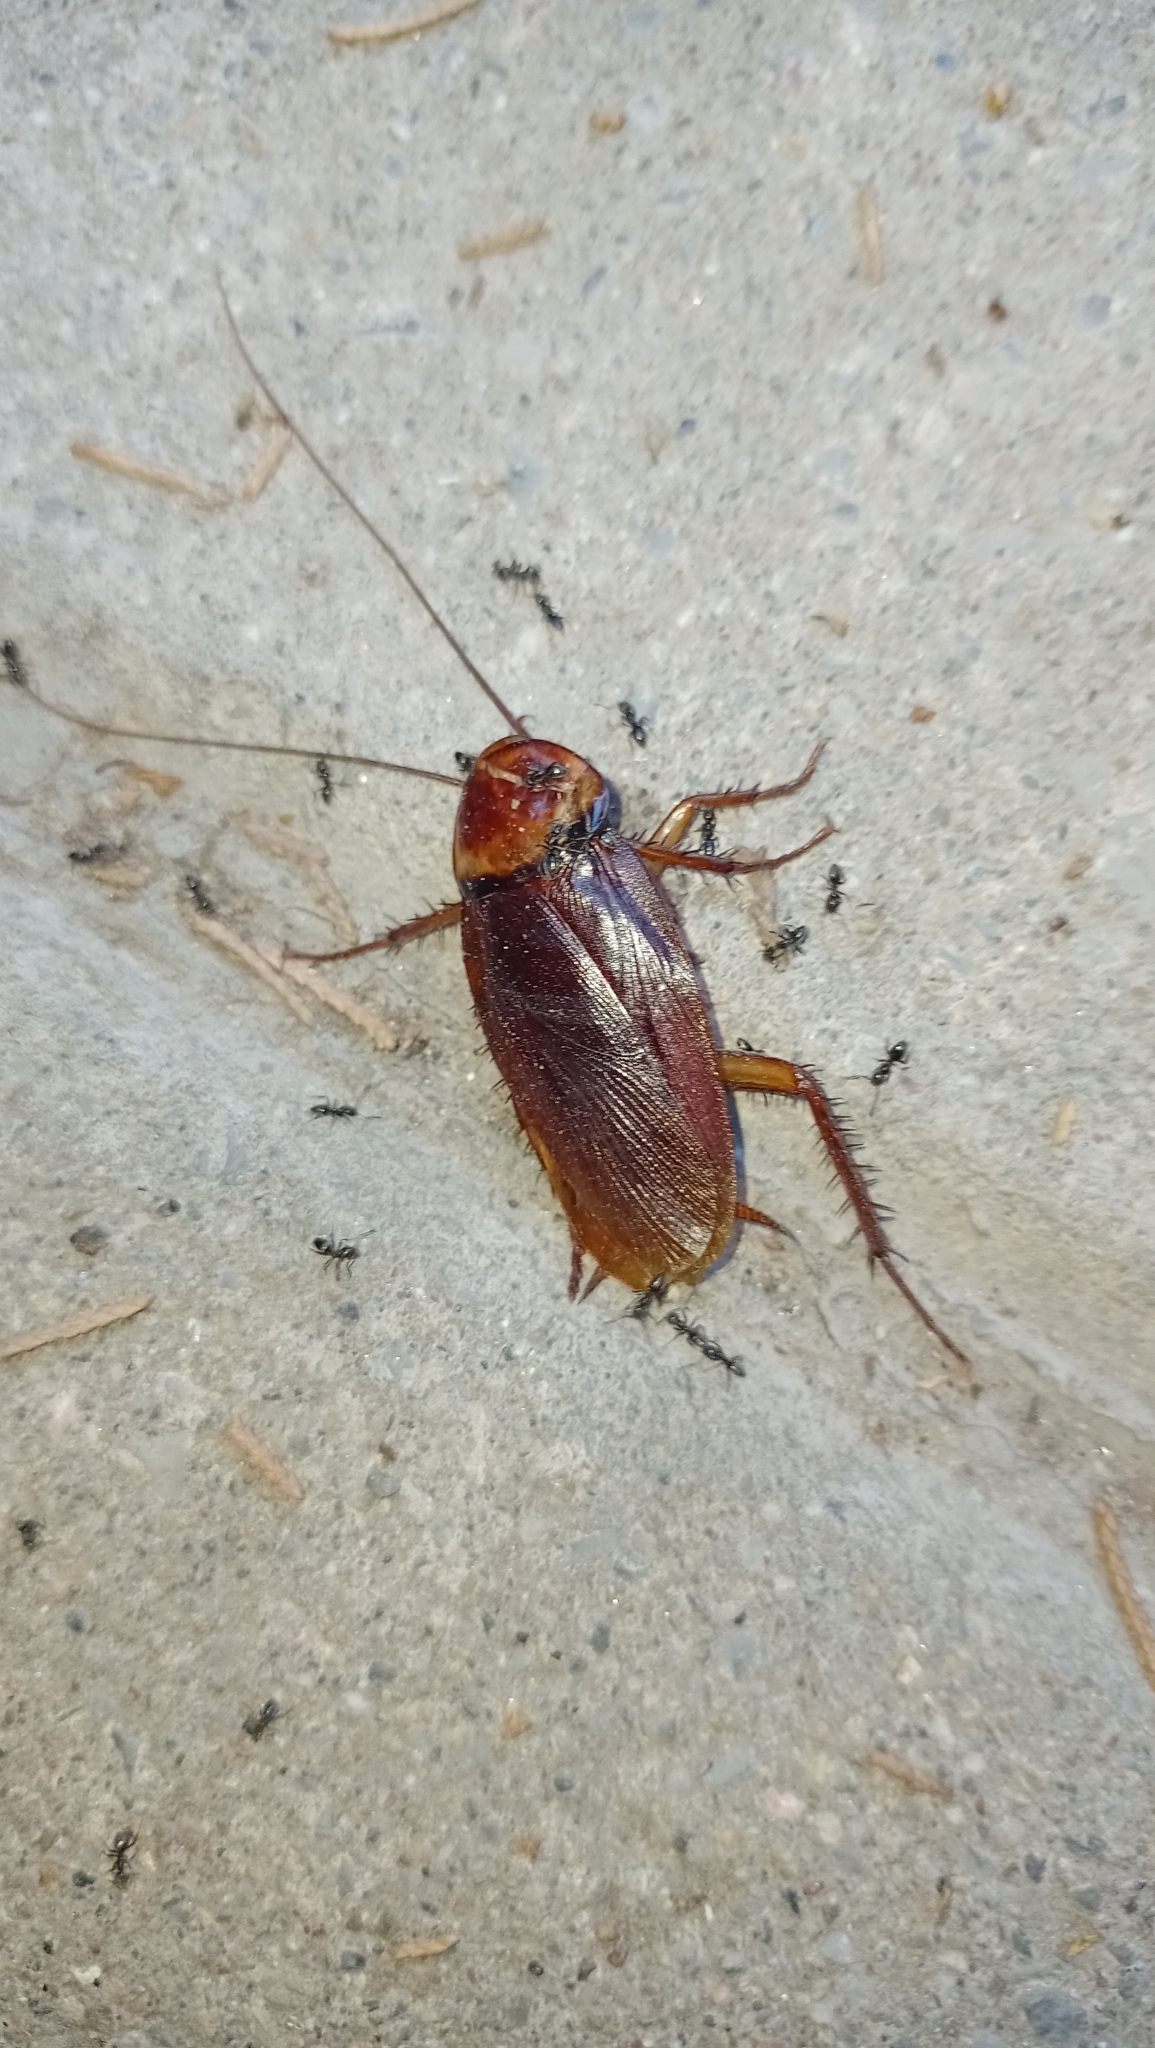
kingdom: Animalia
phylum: Arthropoda
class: Insecta
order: Blattodea
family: Blattidae
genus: Periplaneta
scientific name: Periplaneta americana
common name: American cockroach
